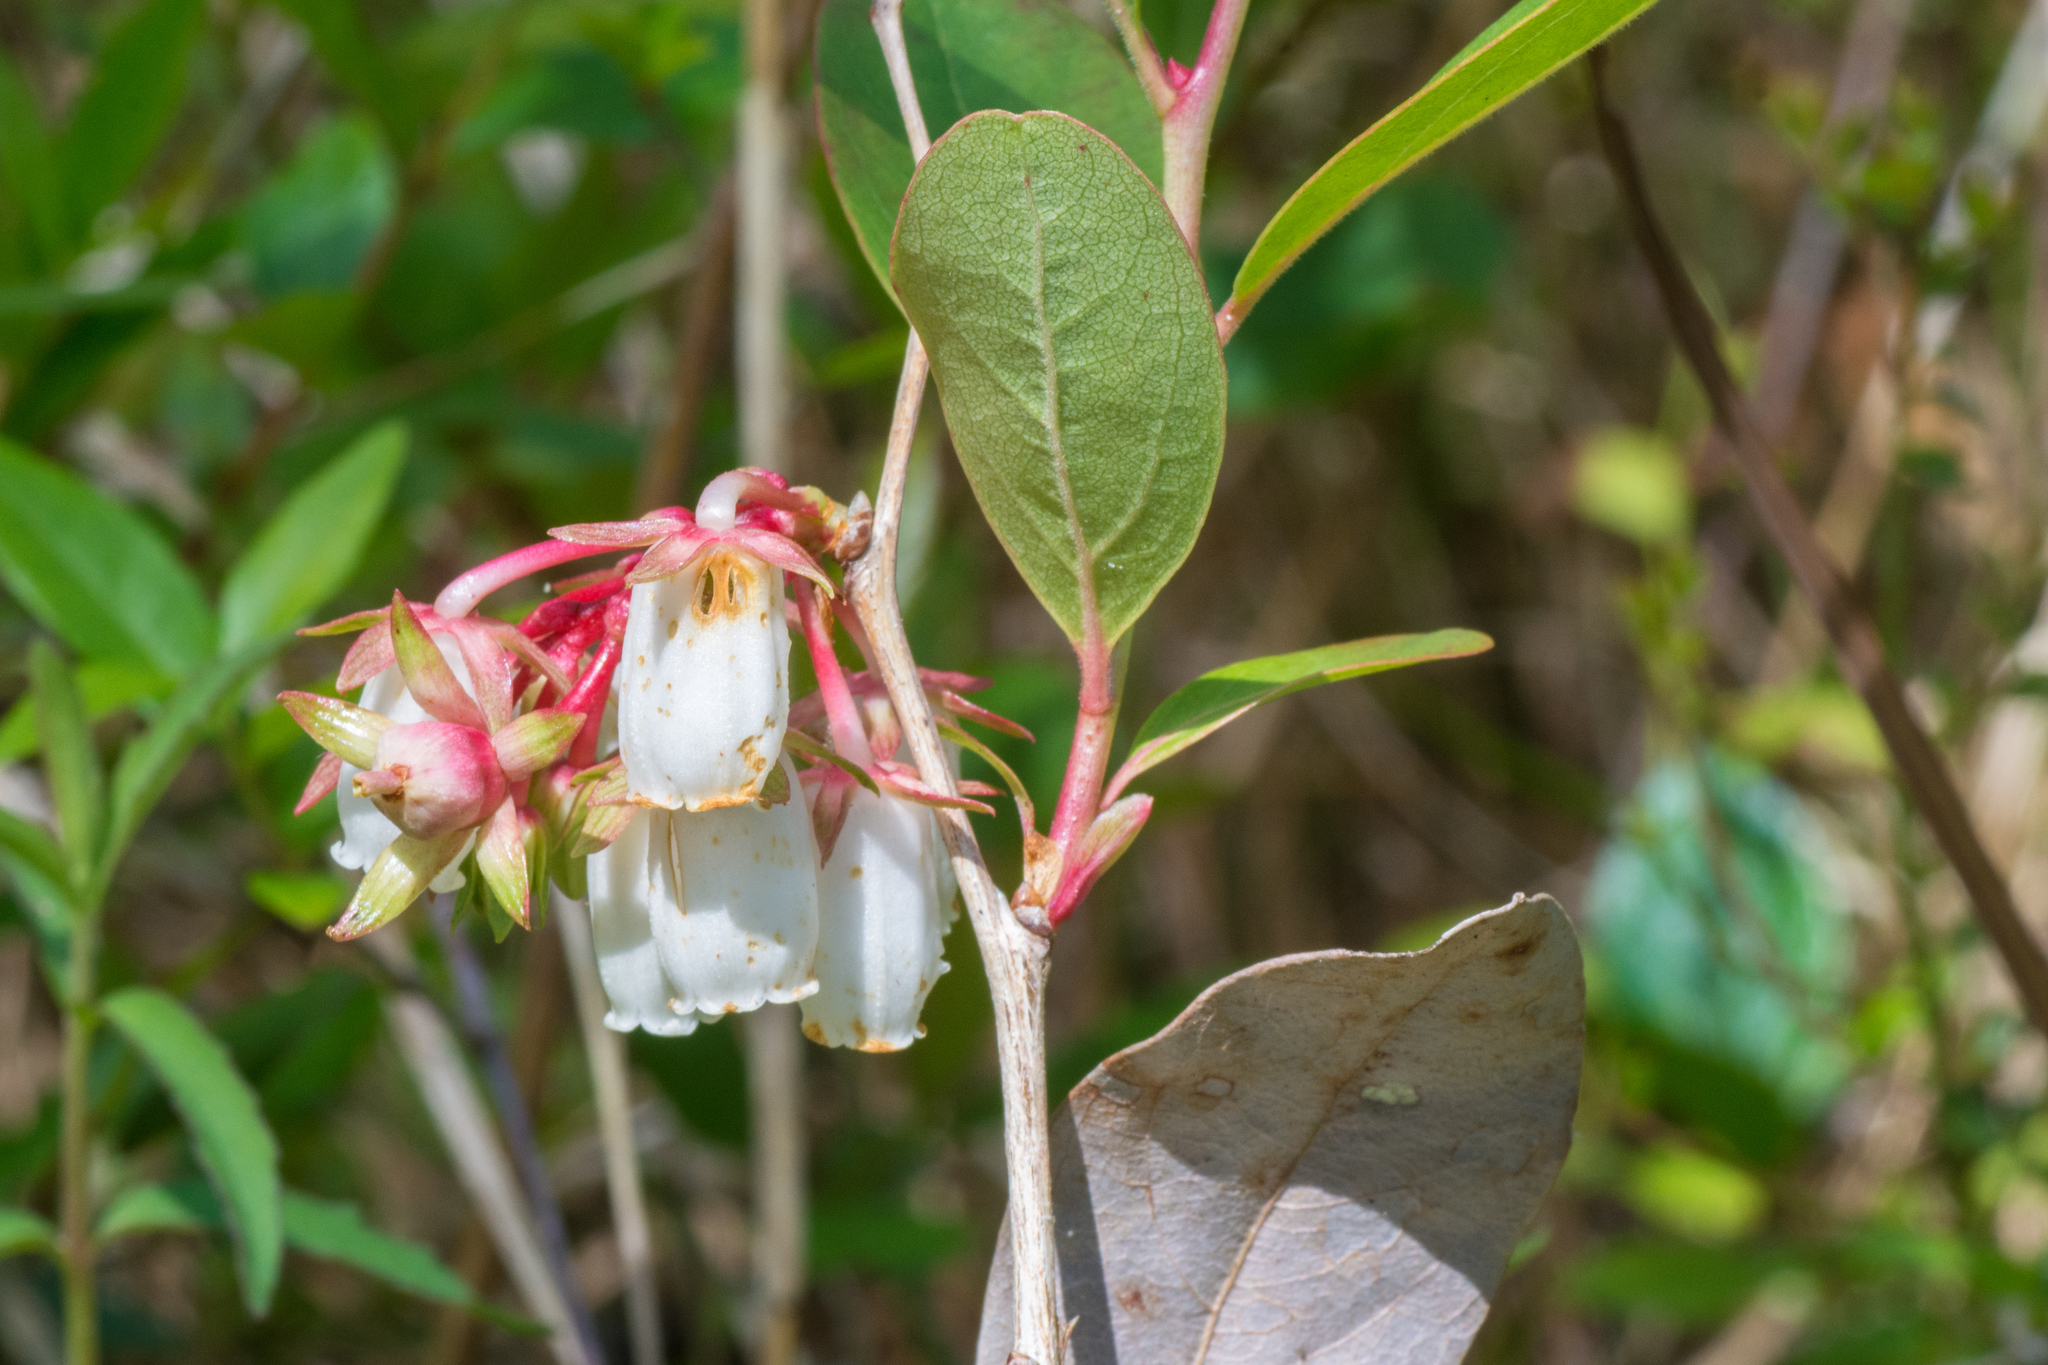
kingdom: Plantae
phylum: Tracheophyta
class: Magnoliopsida
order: Ericales
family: Ericaceae
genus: Lyonia
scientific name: Lyonia mariana
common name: Staggerbush
